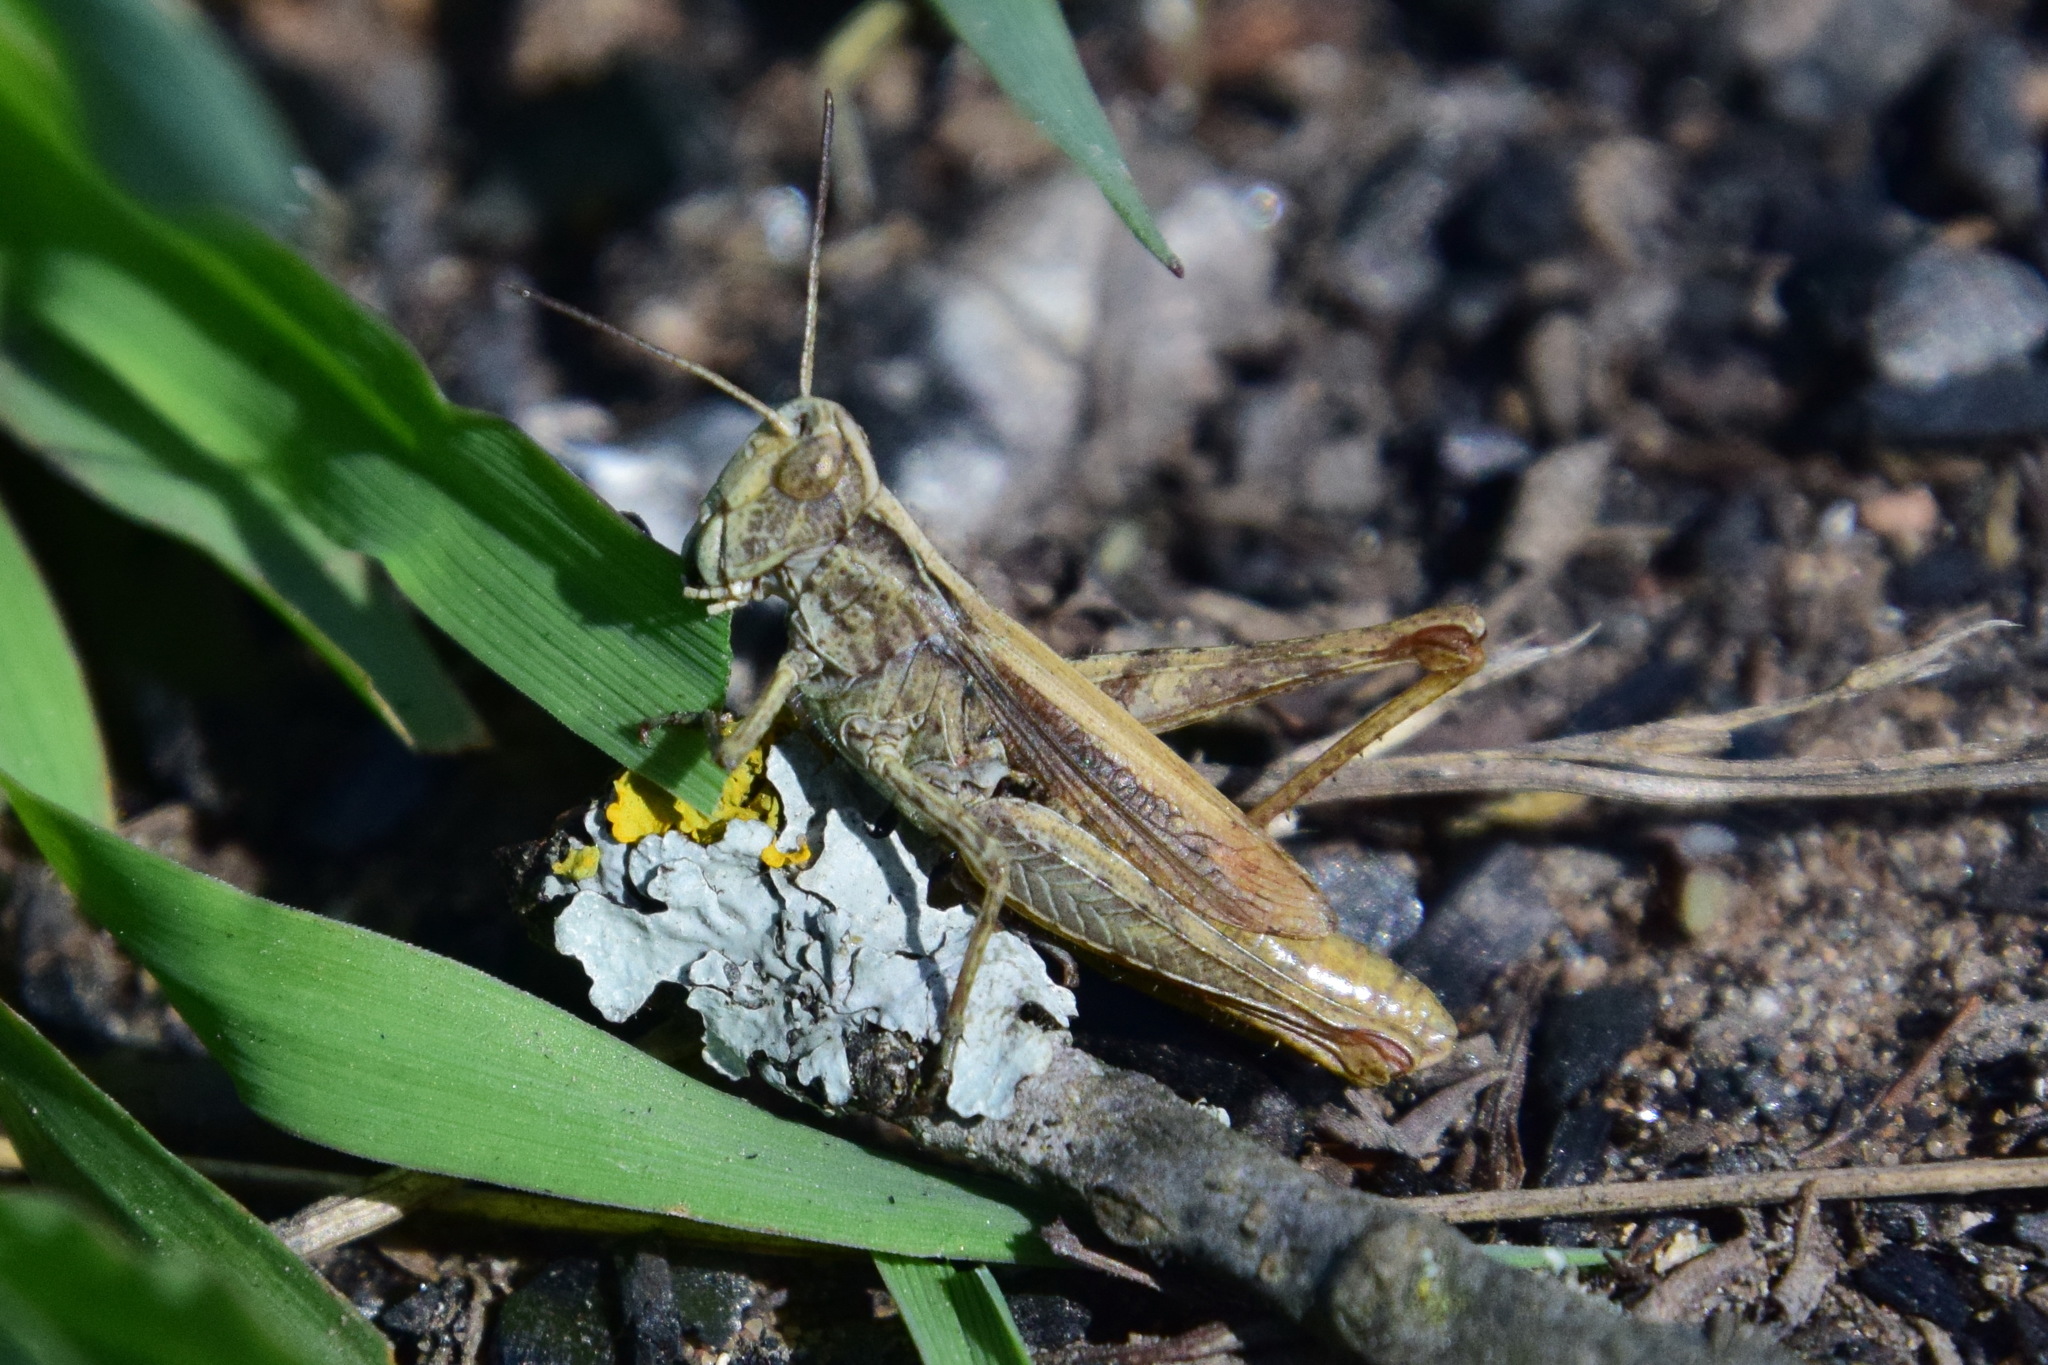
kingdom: Animalia
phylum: Arthropoda
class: Insecta
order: Orthoptera
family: Acrididae
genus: Chorthippus
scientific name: Chorthippus apricarius
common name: Upland field grasshopper
